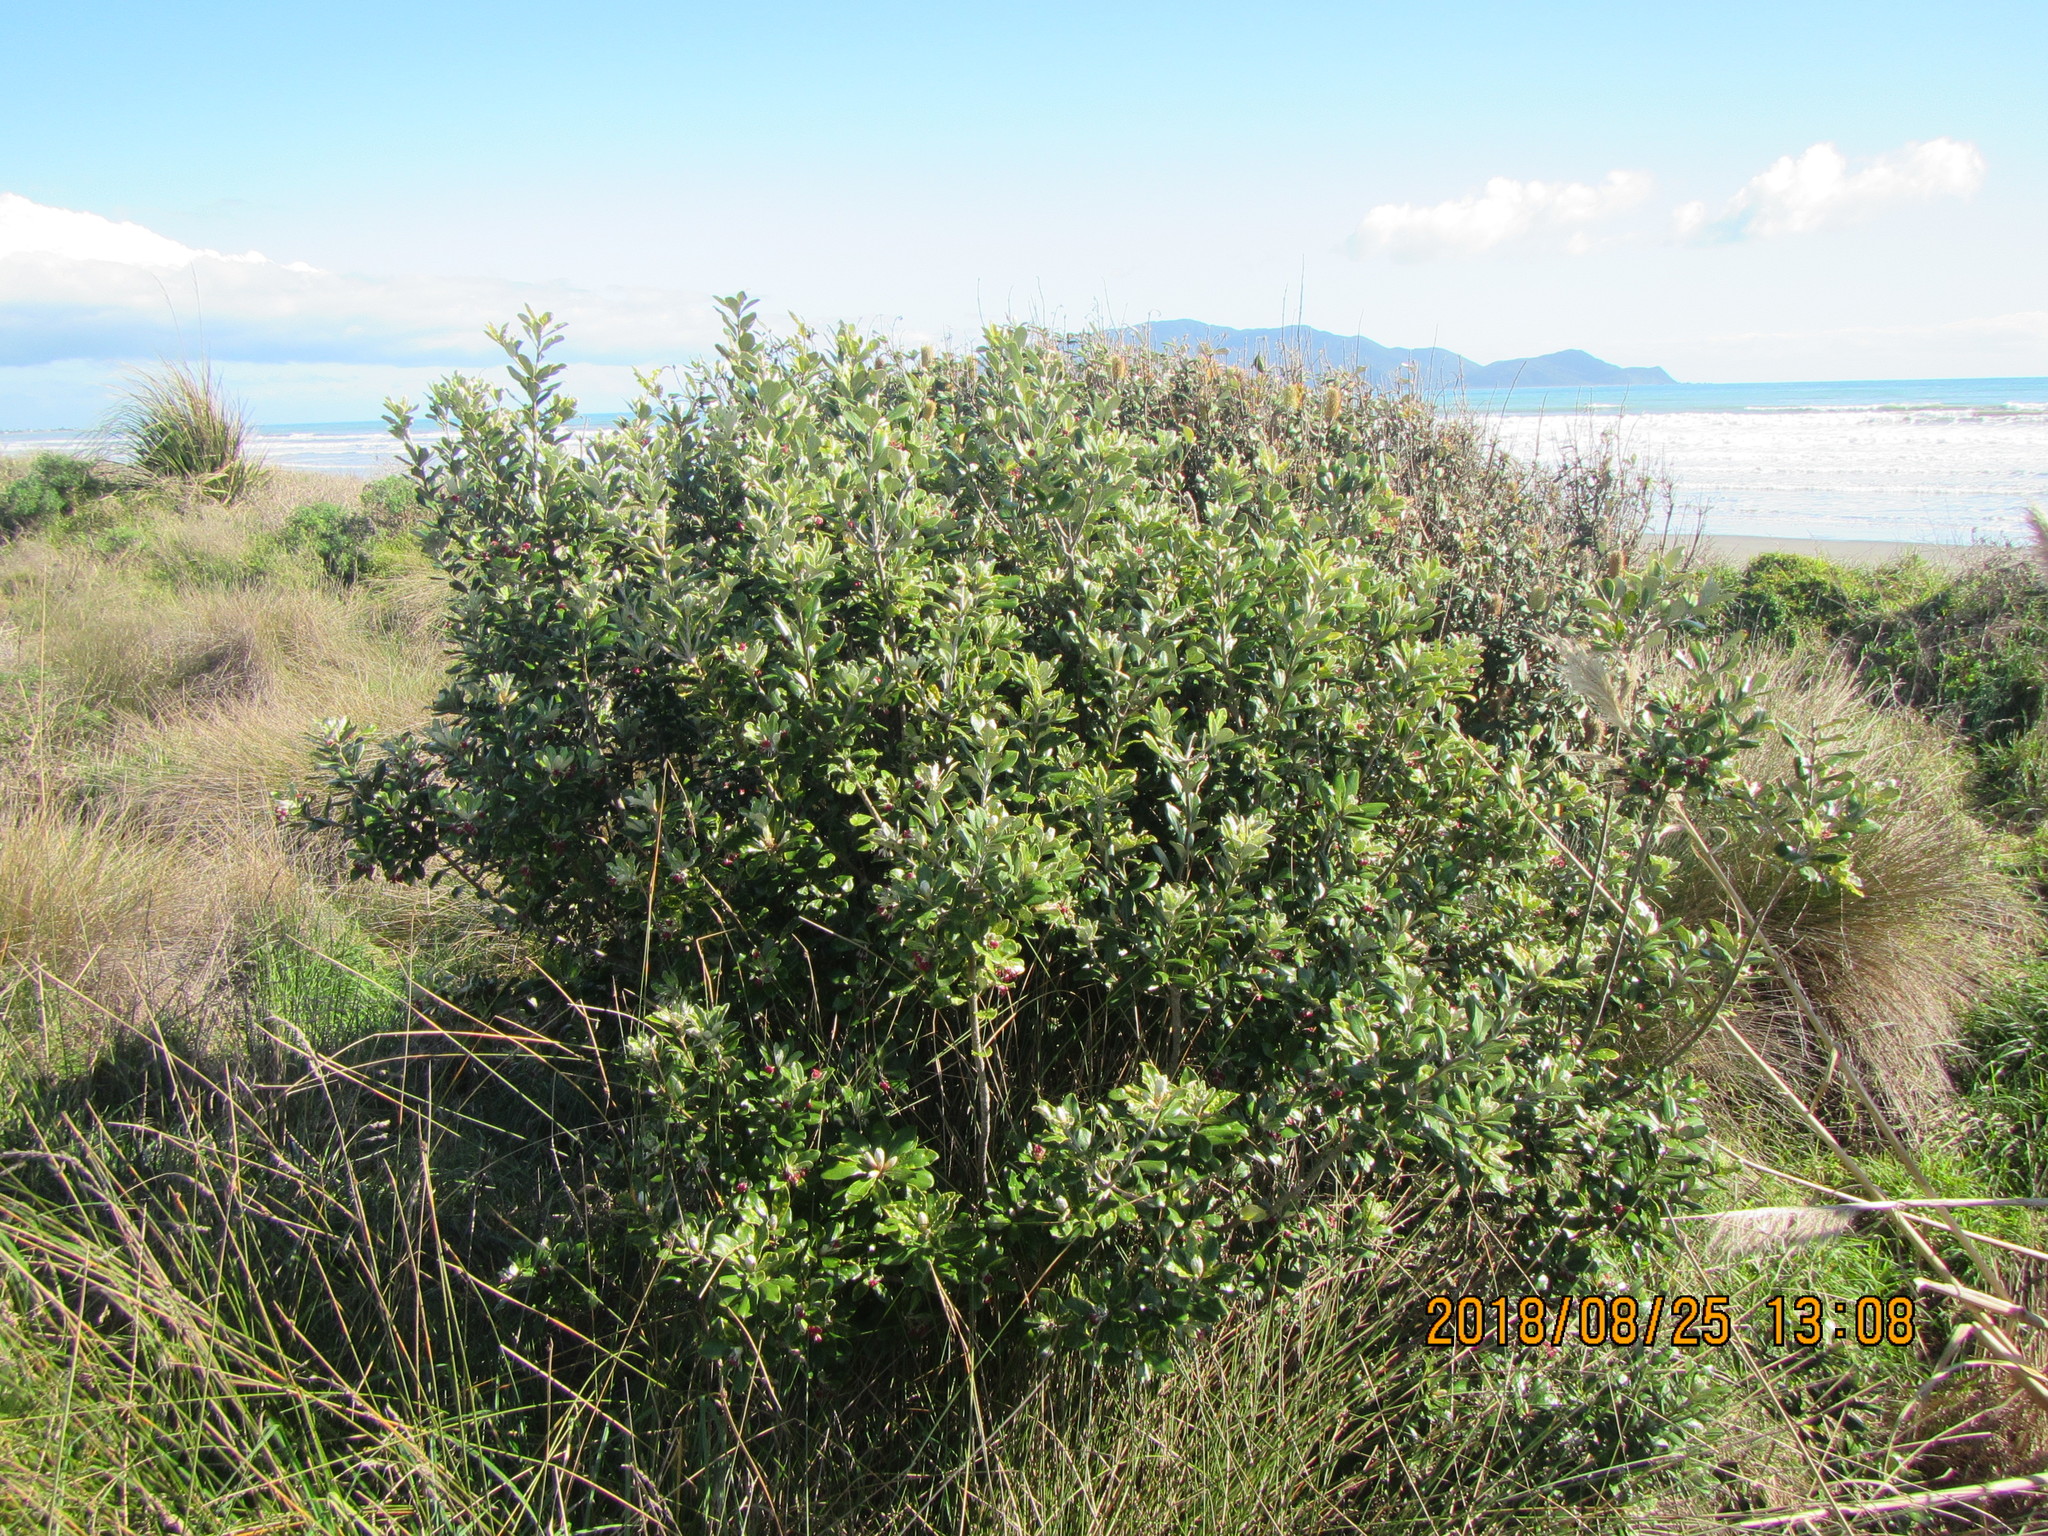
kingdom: Plantae
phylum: Tracheophyta
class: Magnoliopsida
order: Apiales
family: Pittosporaceae
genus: Pittosporum
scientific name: Pittosporum crassifolium
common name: Karo
